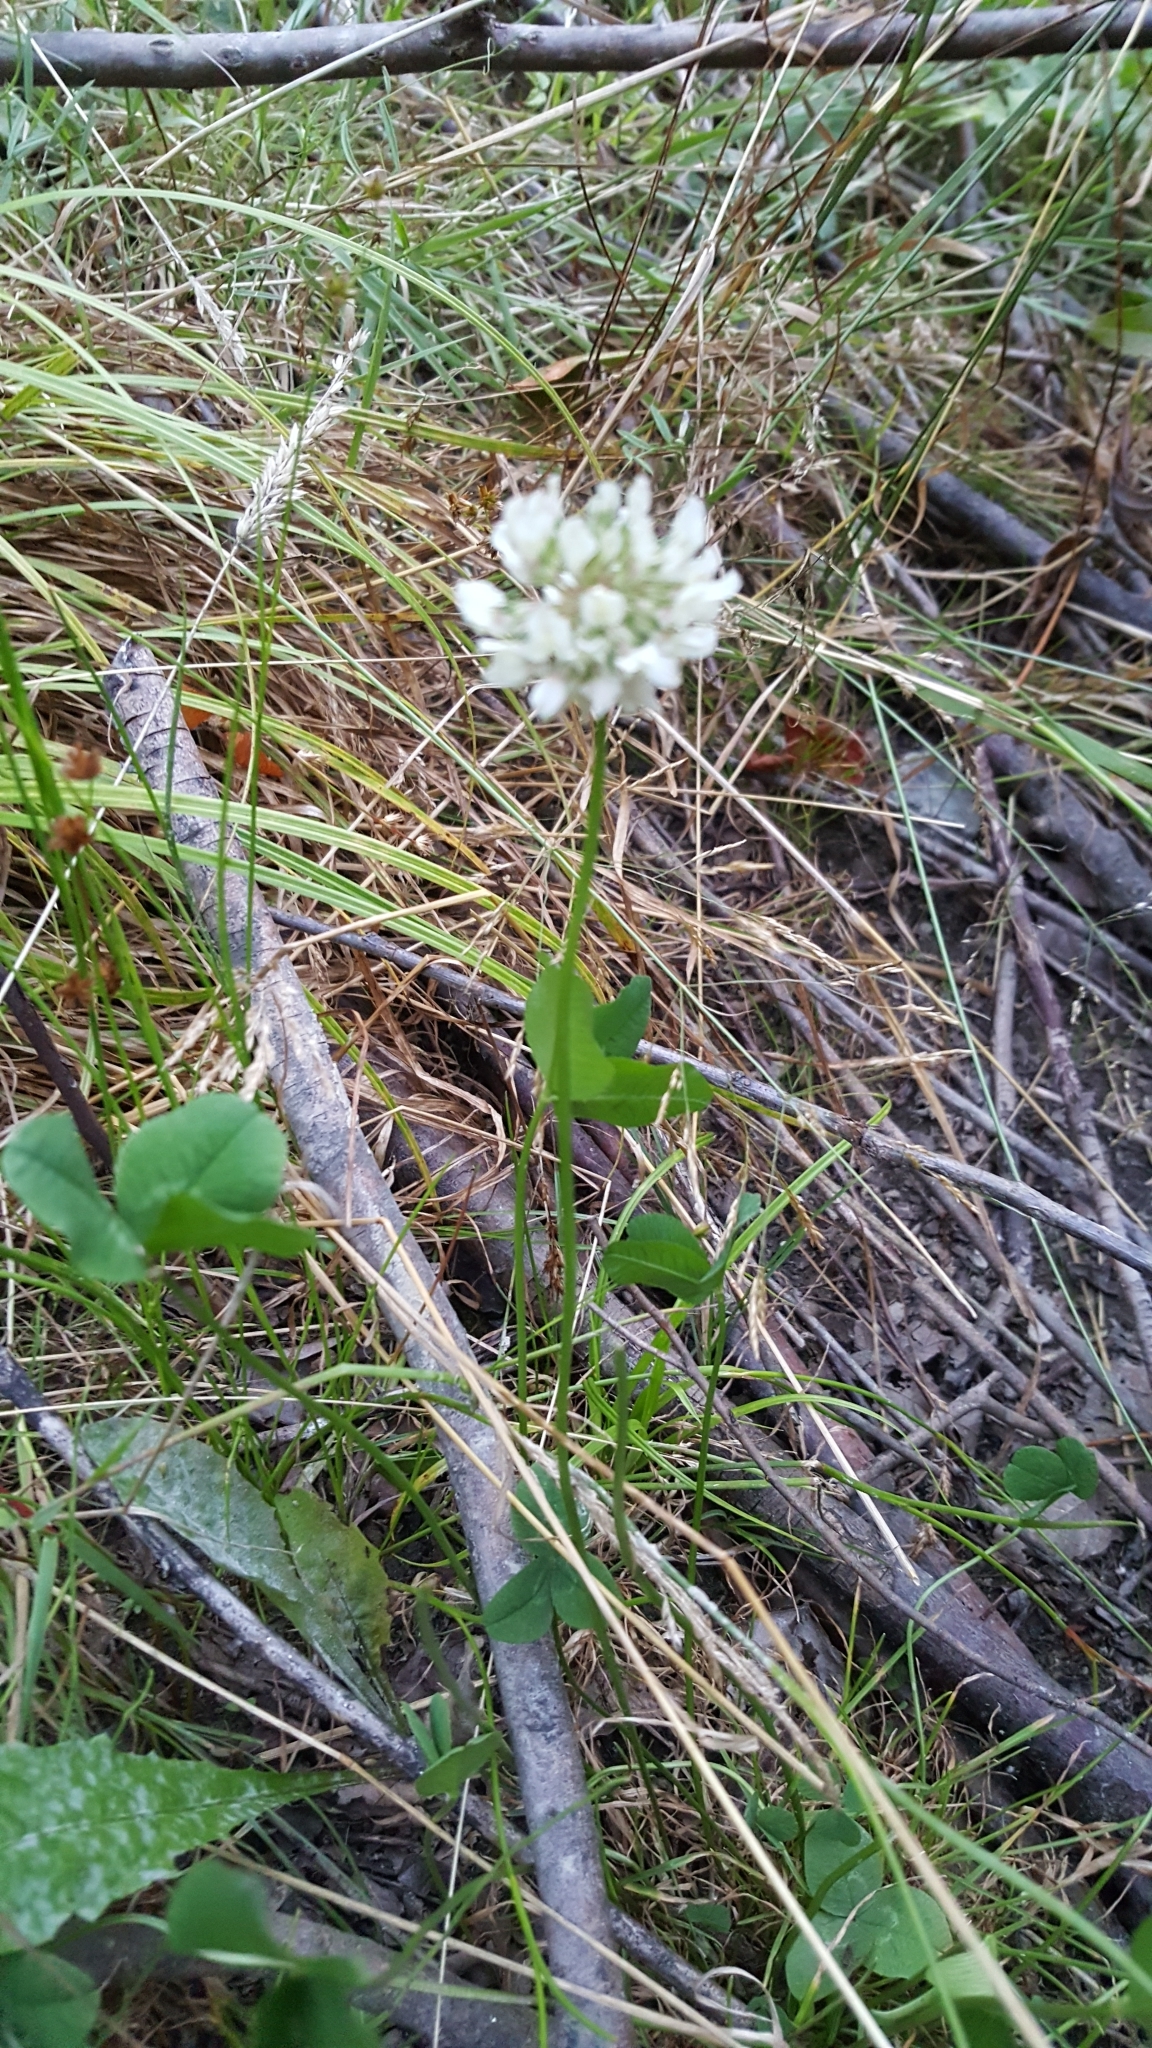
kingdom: Plantae
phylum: Tracheophyta
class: Magnoliopsida
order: Fabales
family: Fabaceae
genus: Trifolium
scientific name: Trifolium repens
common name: White clover
